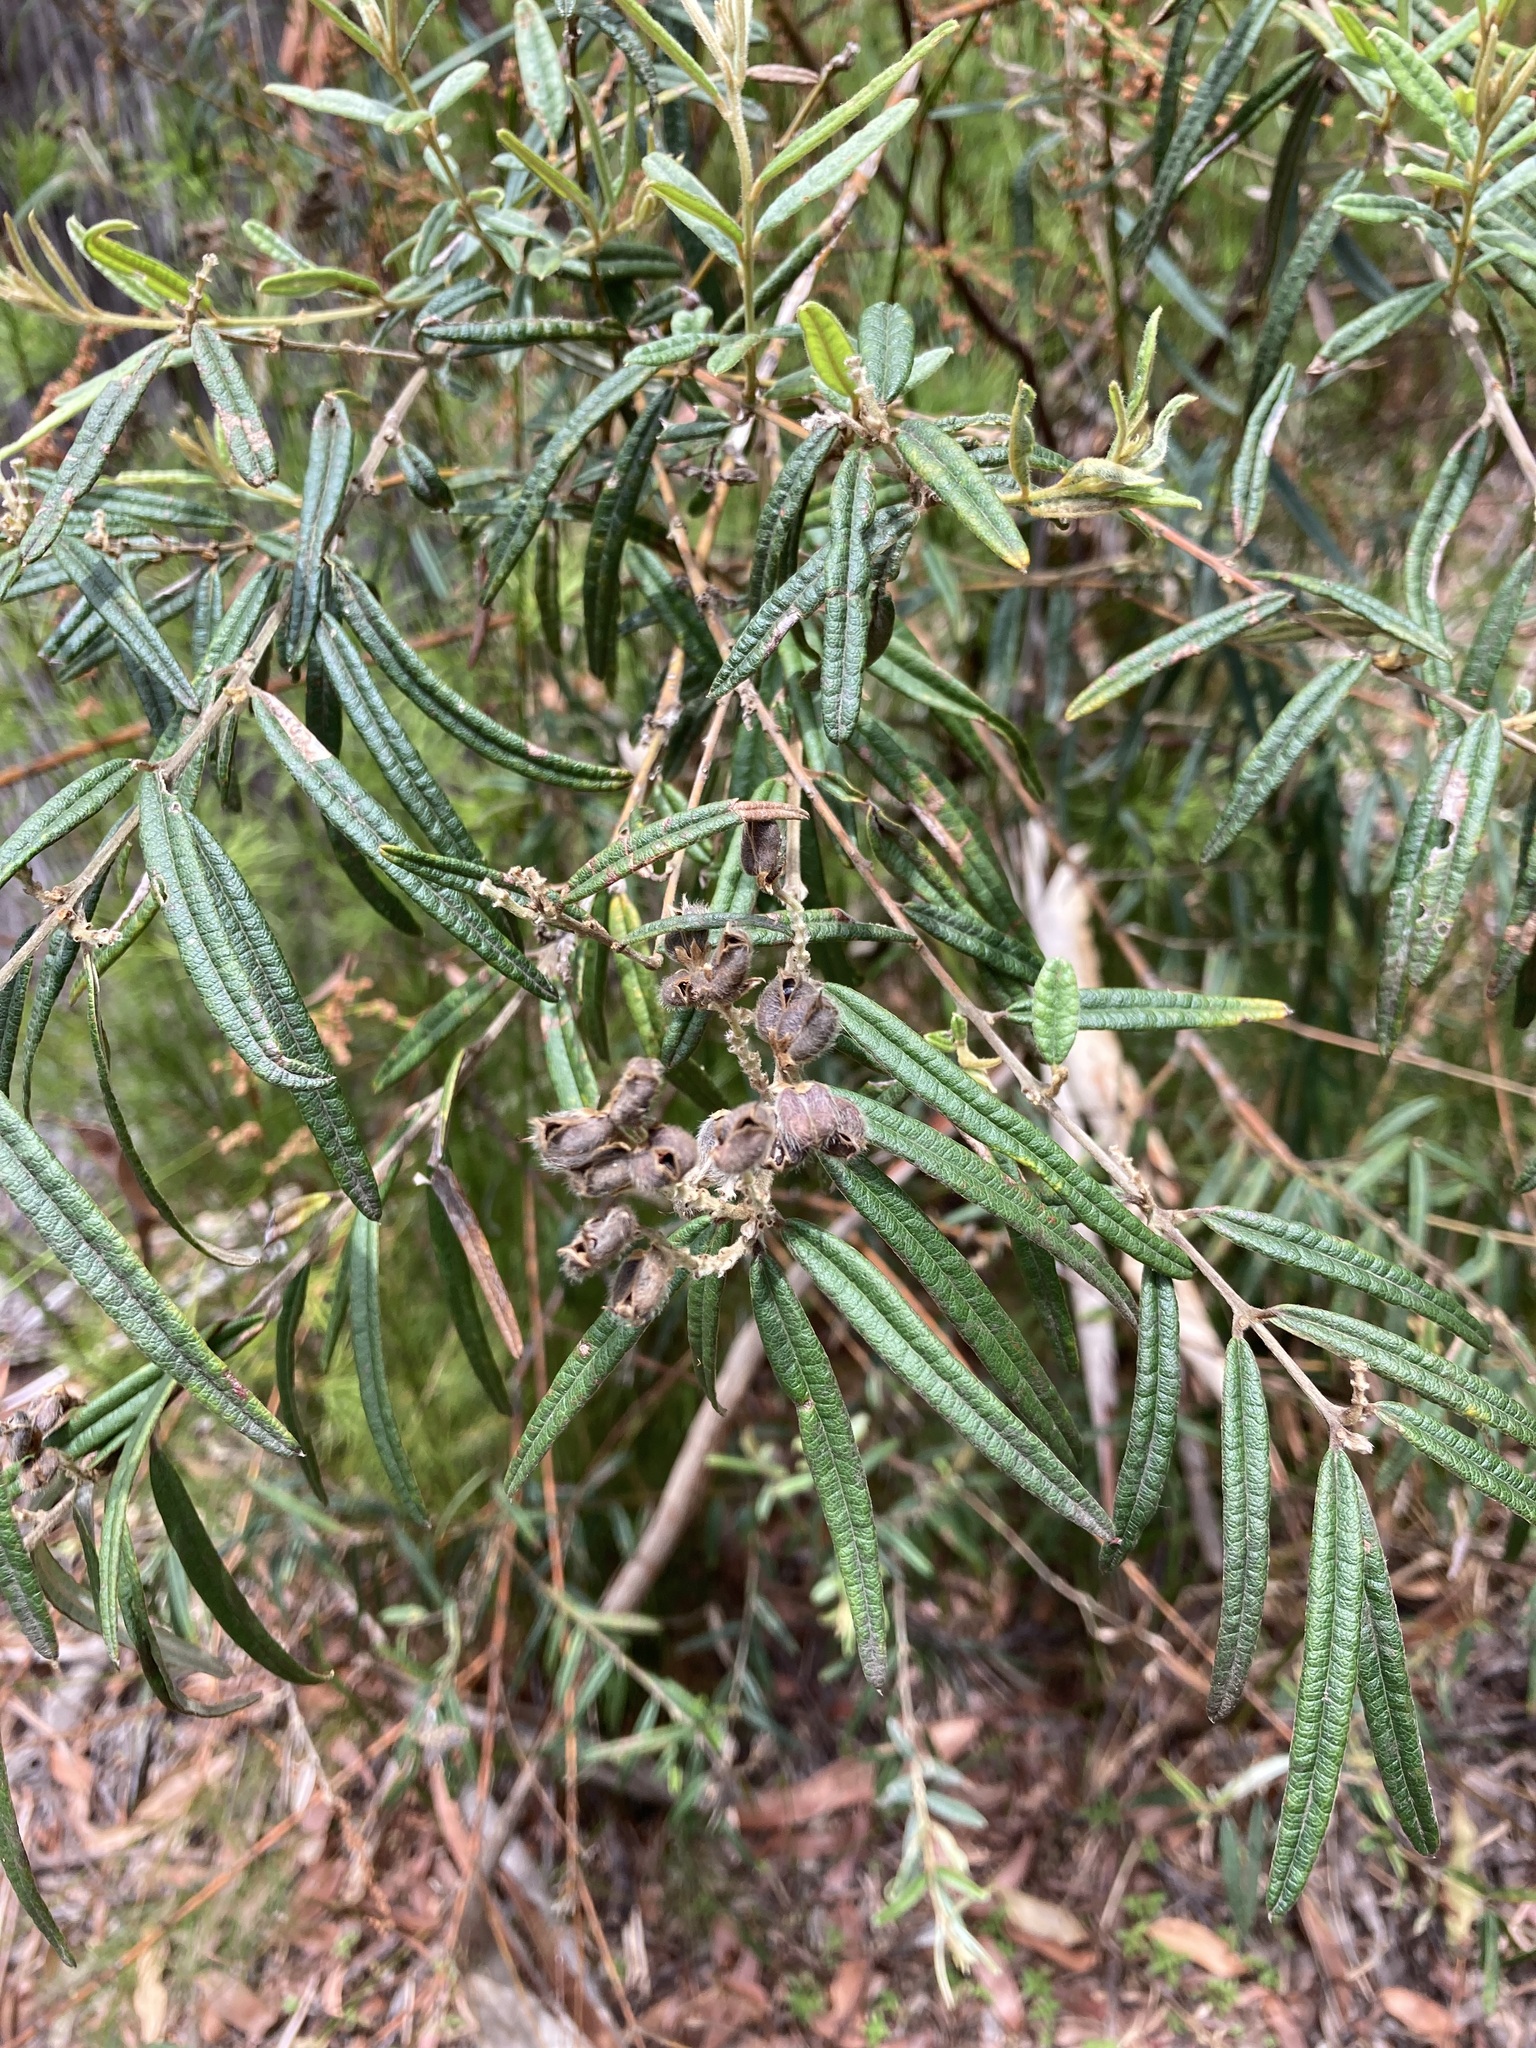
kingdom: Plantae
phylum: Tracheophyta
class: Magnoliopsida
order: Fabales
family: Fabaceae
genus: Oxylobium
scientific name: Oxylobium robustum
